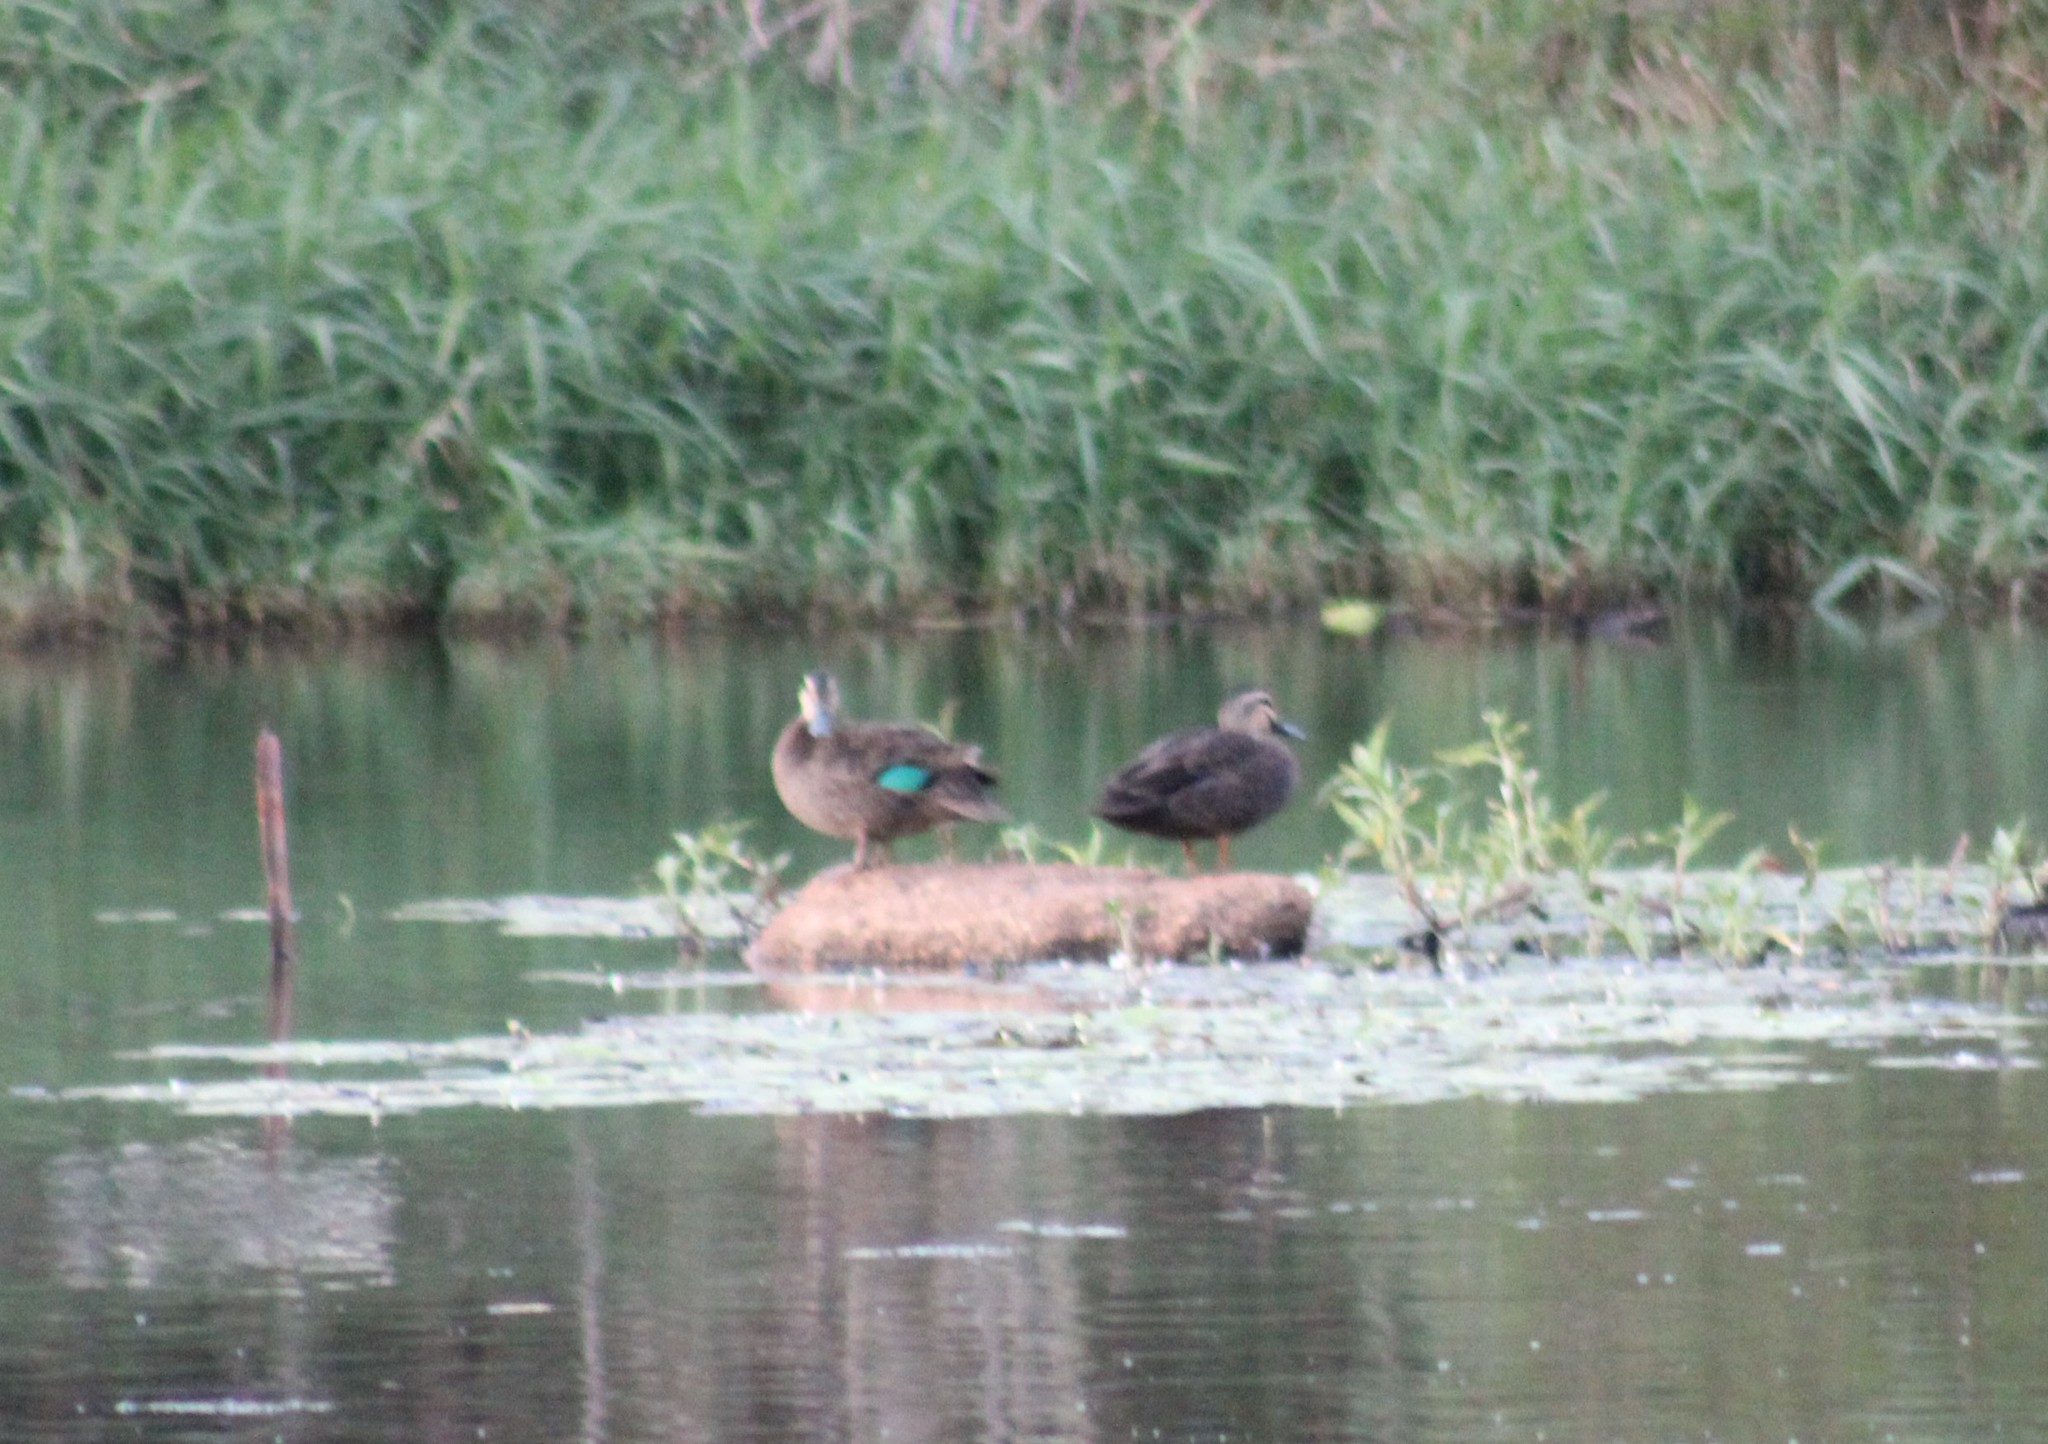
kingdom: Animalia
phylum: Chordata
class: Aves
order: Anseriformes
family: Anatidae
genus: Anas
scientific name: Anas superciliosa
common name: Pacific black duck
